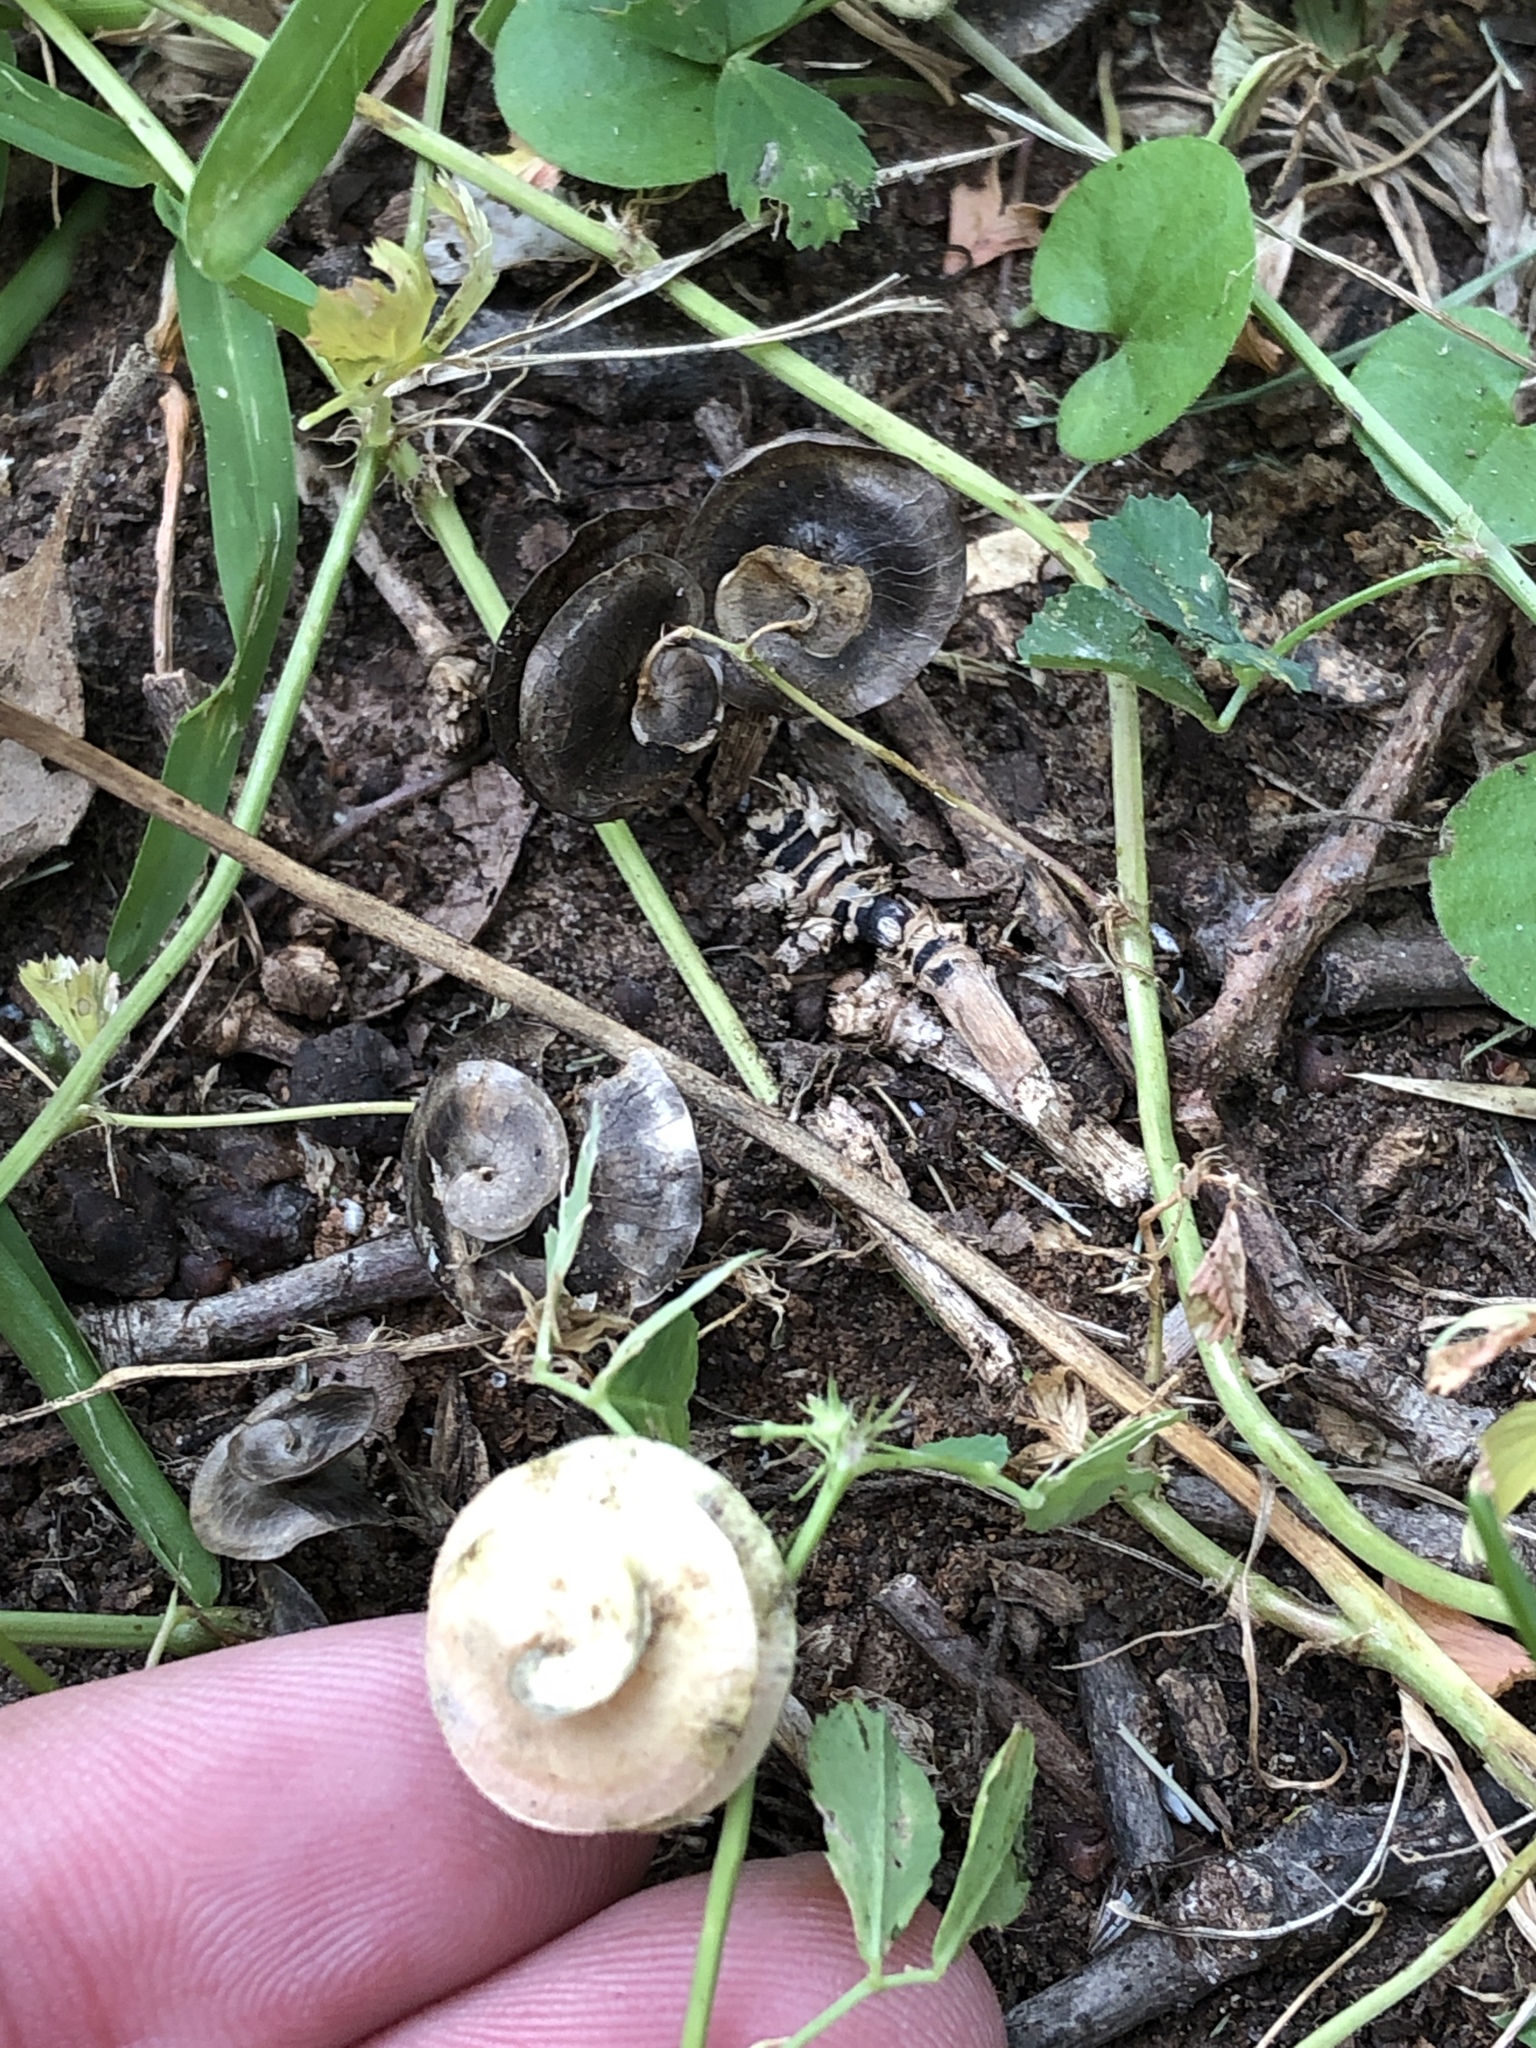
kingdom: Plantae
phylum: Tracheophyta
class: Magnoliopsida
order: Fabales
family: Fabaceae
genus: Medicago
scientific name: Medicago orbicularis
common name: Button medick
